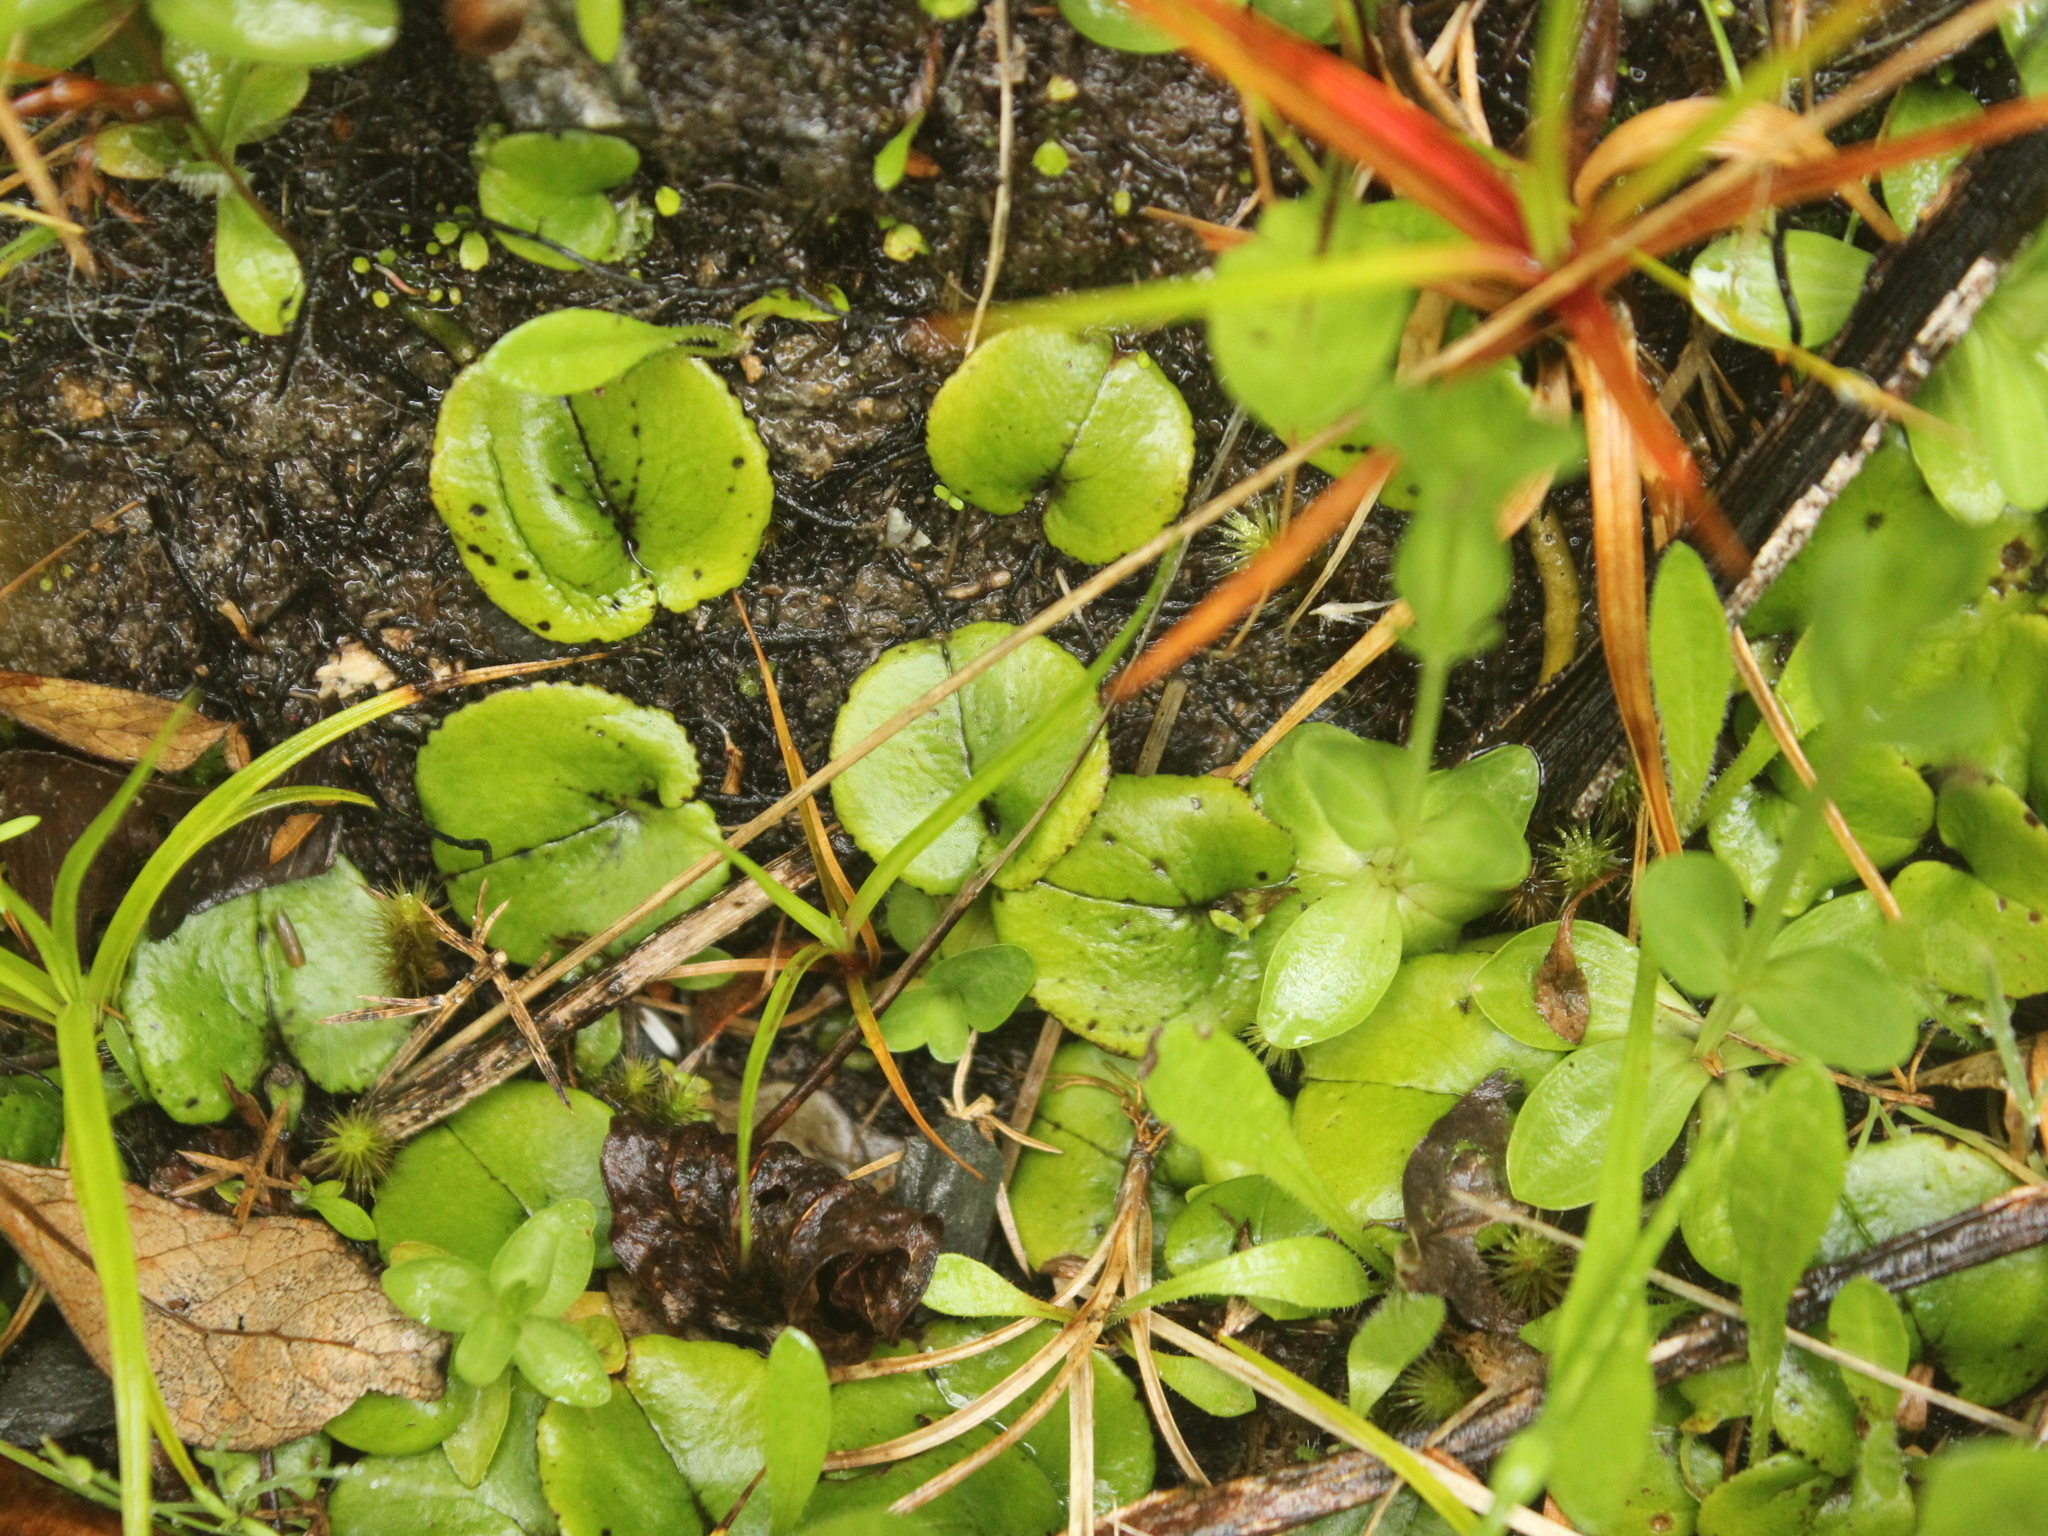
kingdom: Plantae
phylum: Tracheophyta
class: Liliopsida
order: Asparagales
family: Orchidaceae
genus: Corybas
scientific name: Corybas iridescens
